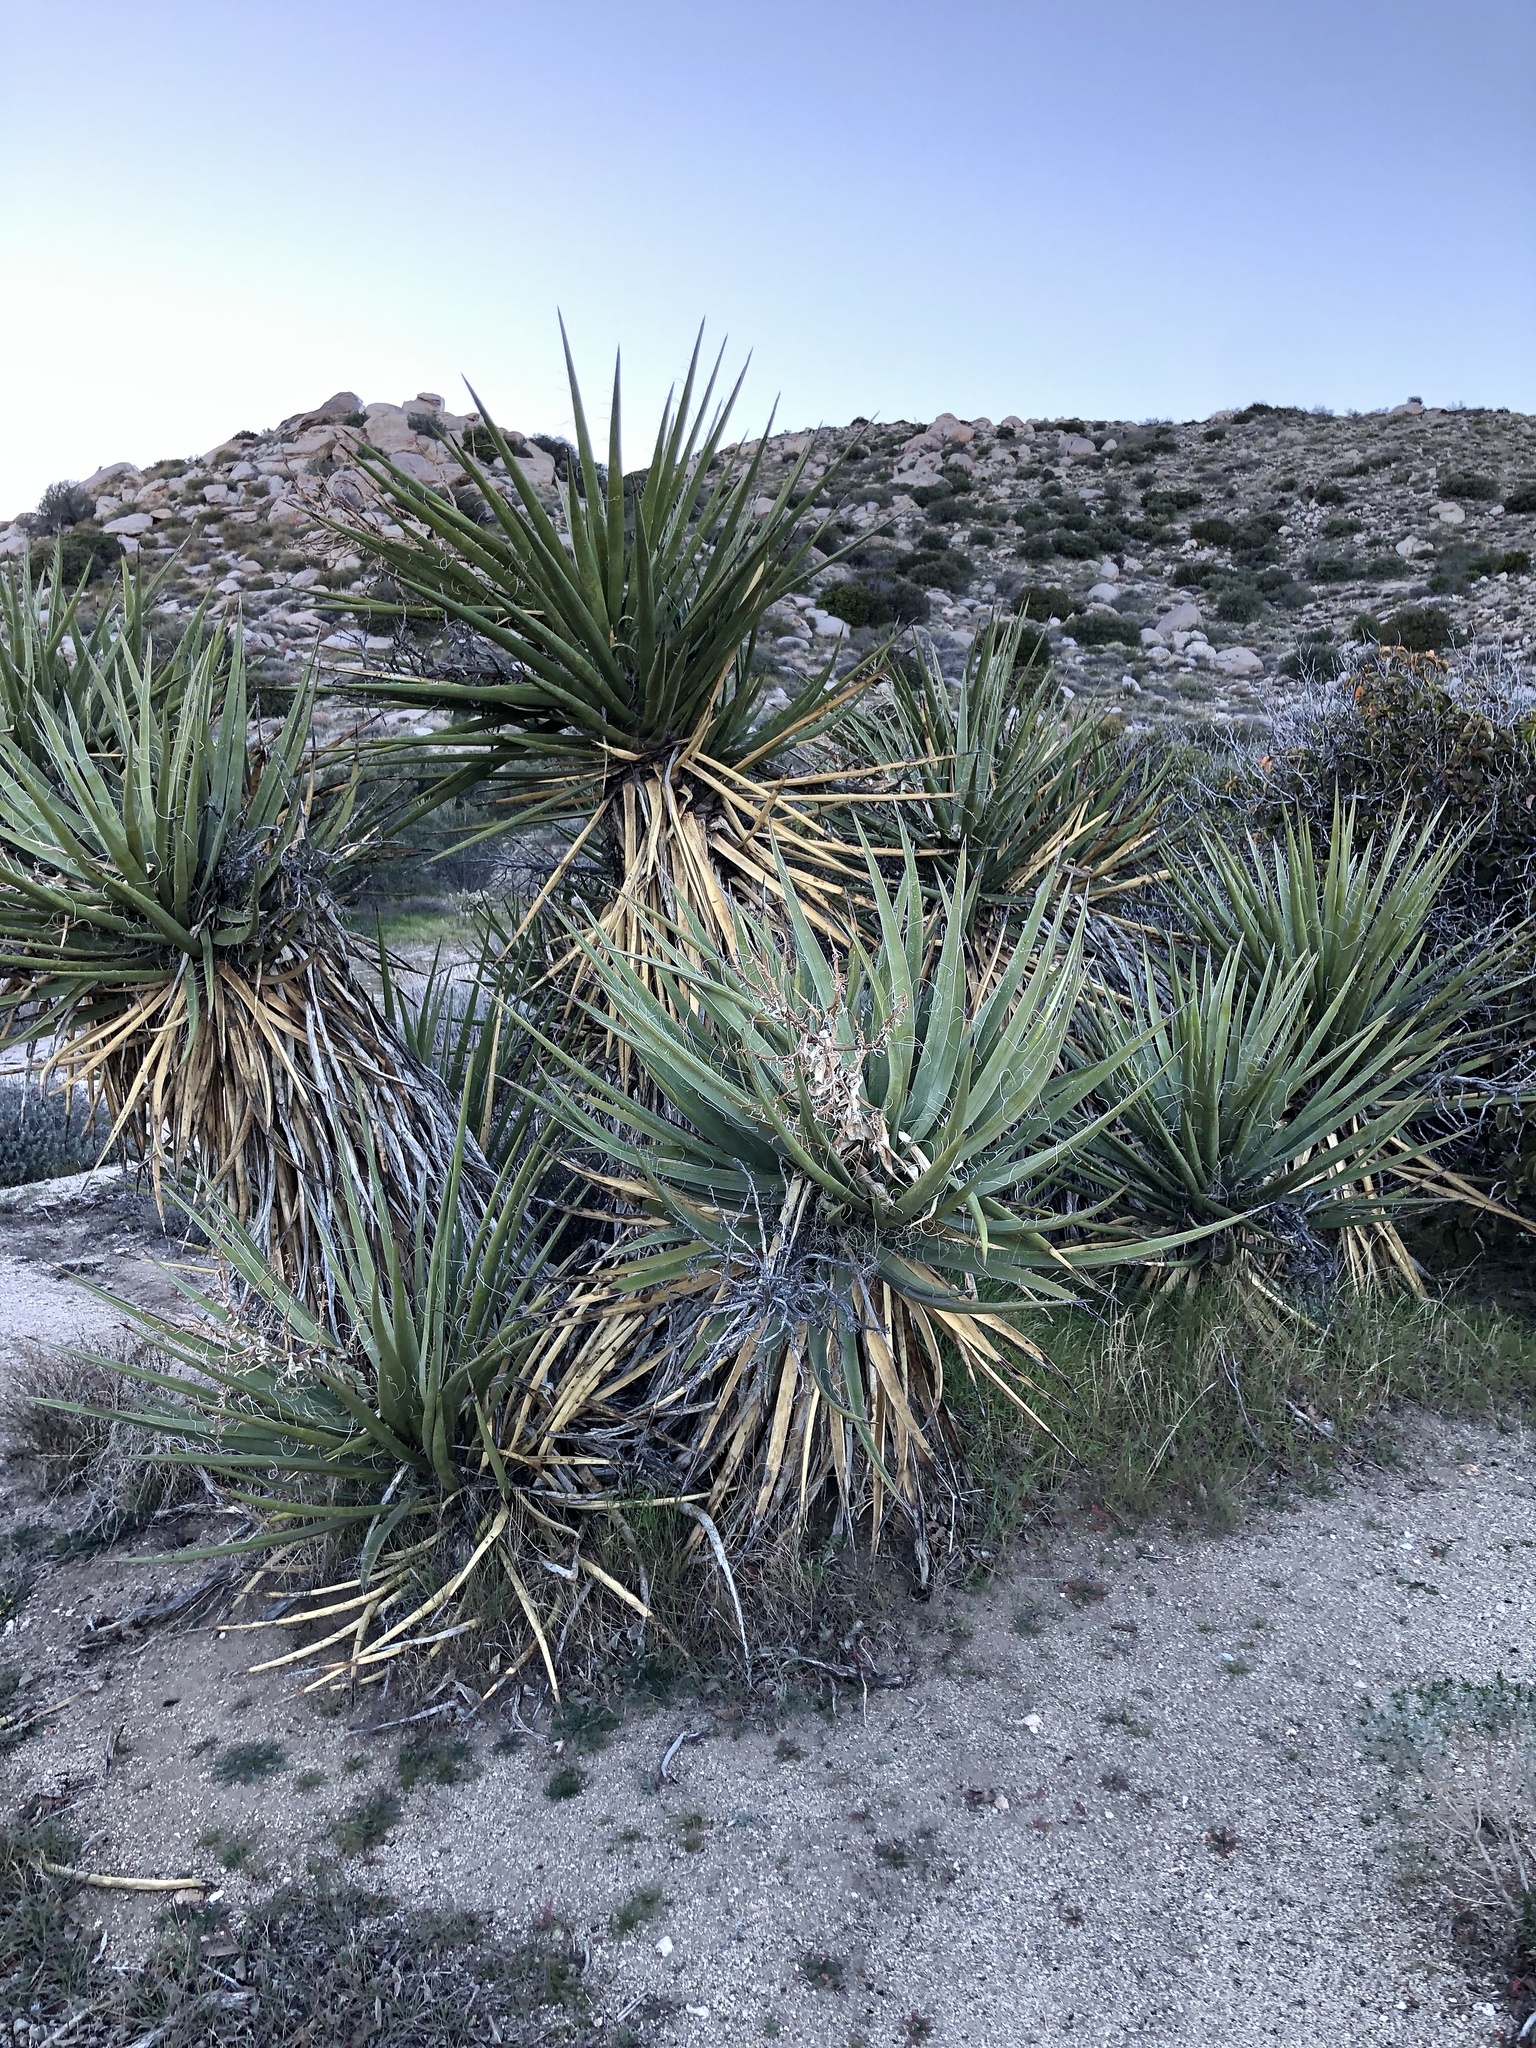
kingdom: Plantae
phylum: Tracheophyta
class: Liliopsida
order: Asparagales
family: Asparagaceae
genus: Yucca
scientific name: Yucca schidigera
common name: Mojave yucca
